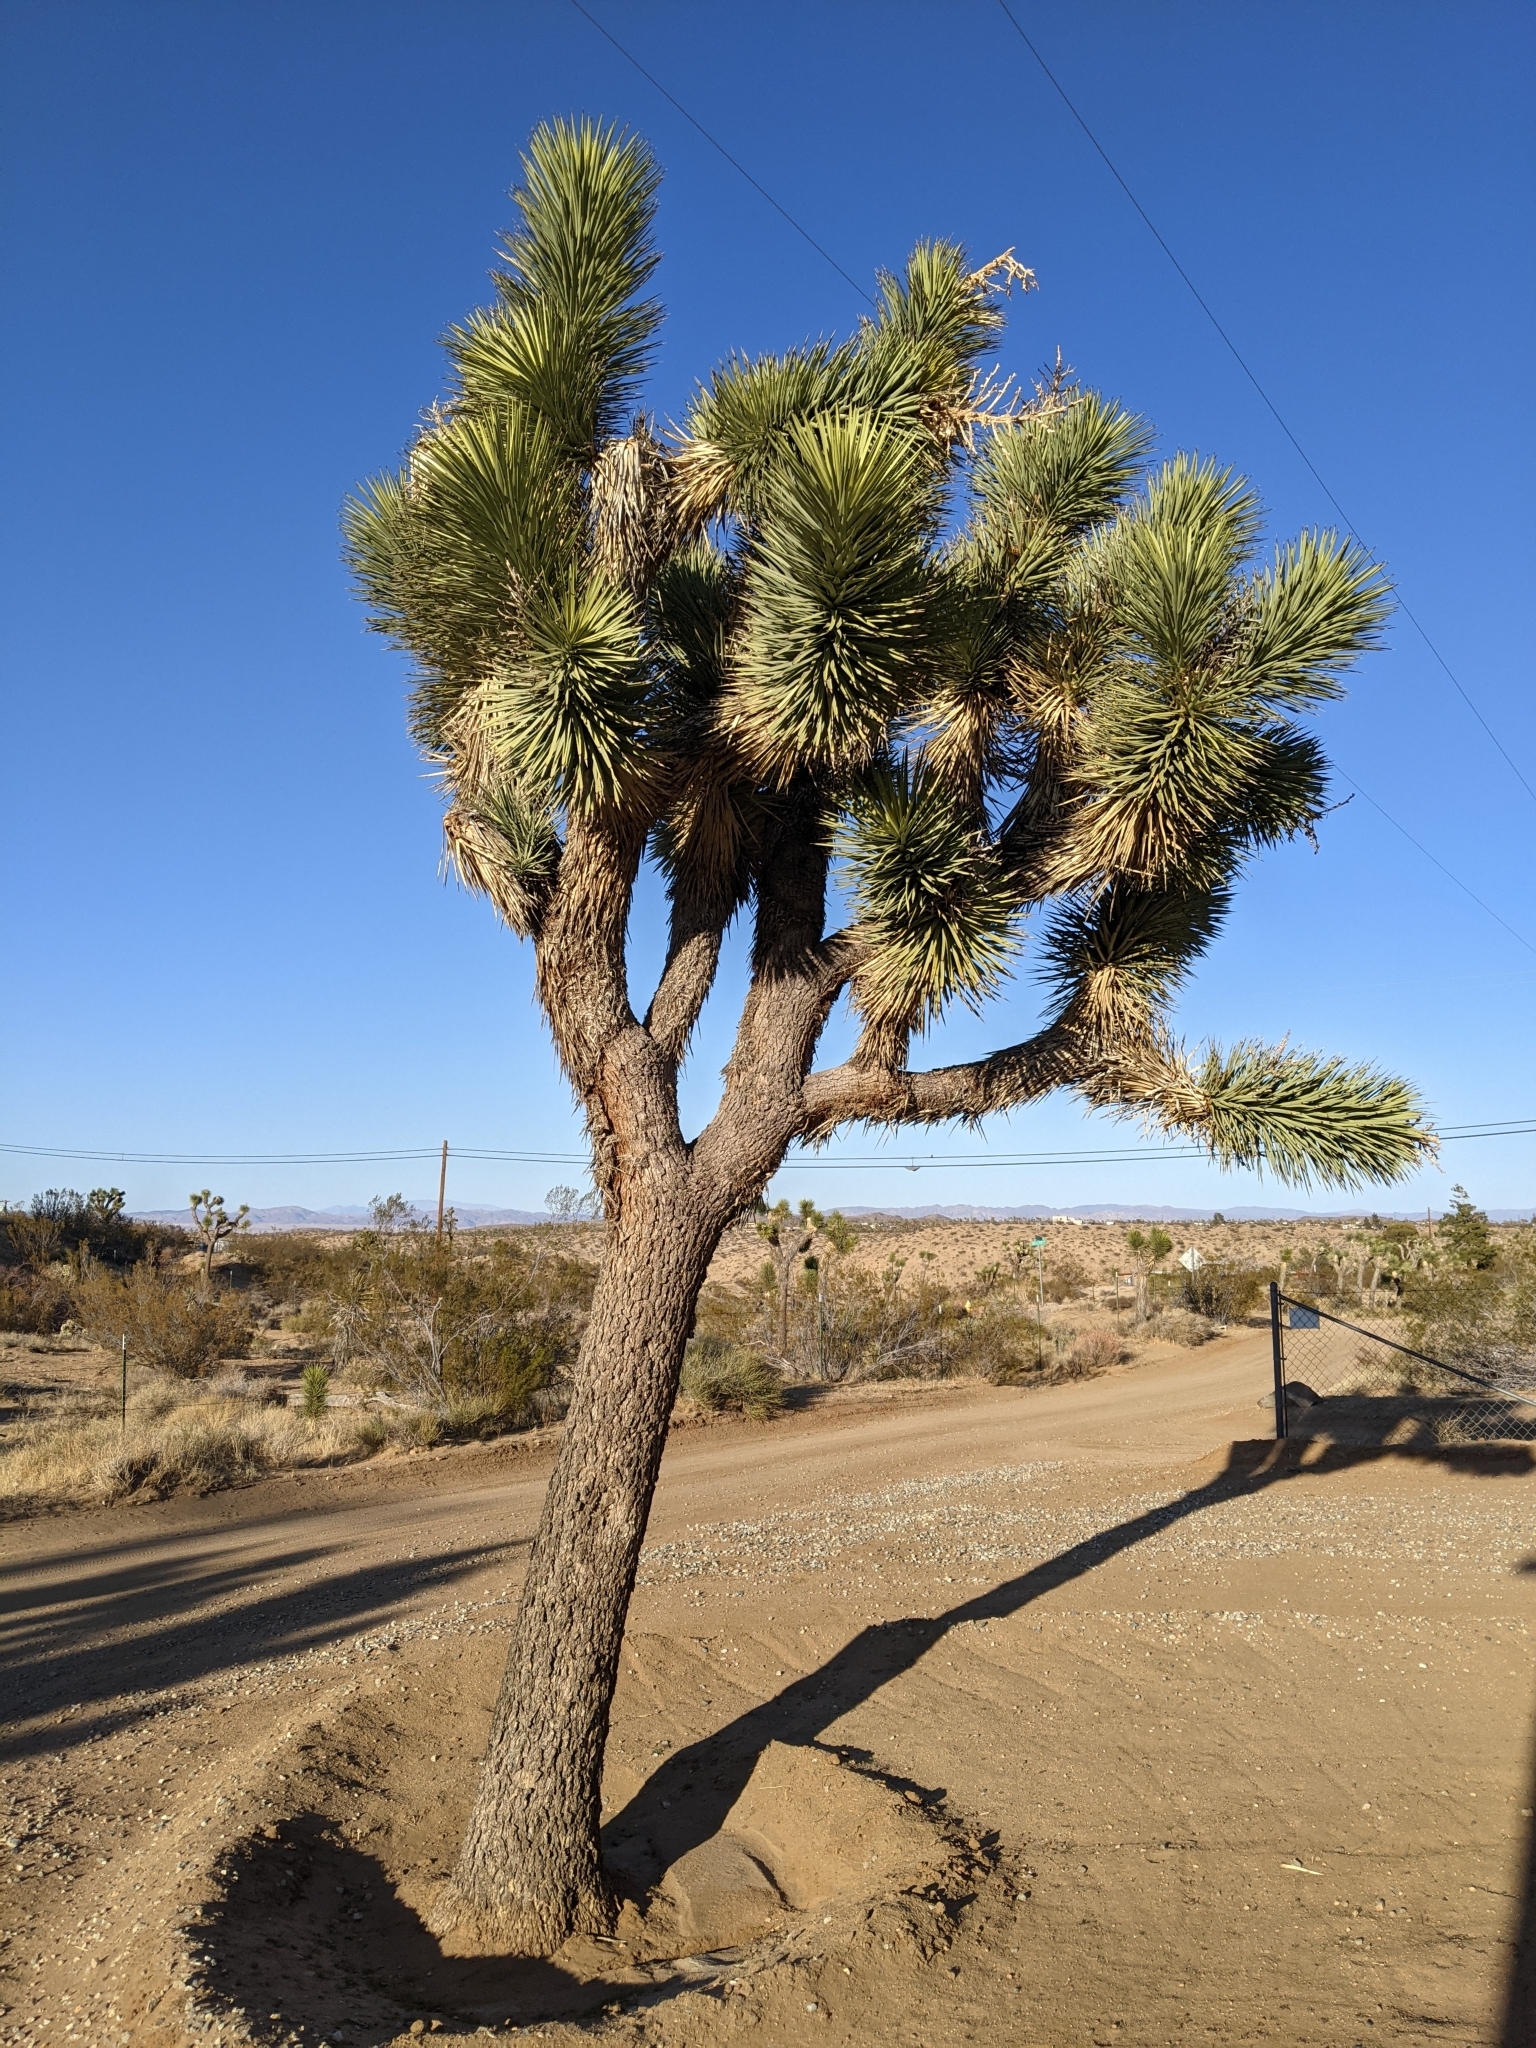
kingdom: Plantae
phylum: Tracheophyta
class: Liliopsida
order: Asparagales
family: Asparagaceae
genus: Yucca
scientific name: Yucca brevifolia
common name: Joshua tree
